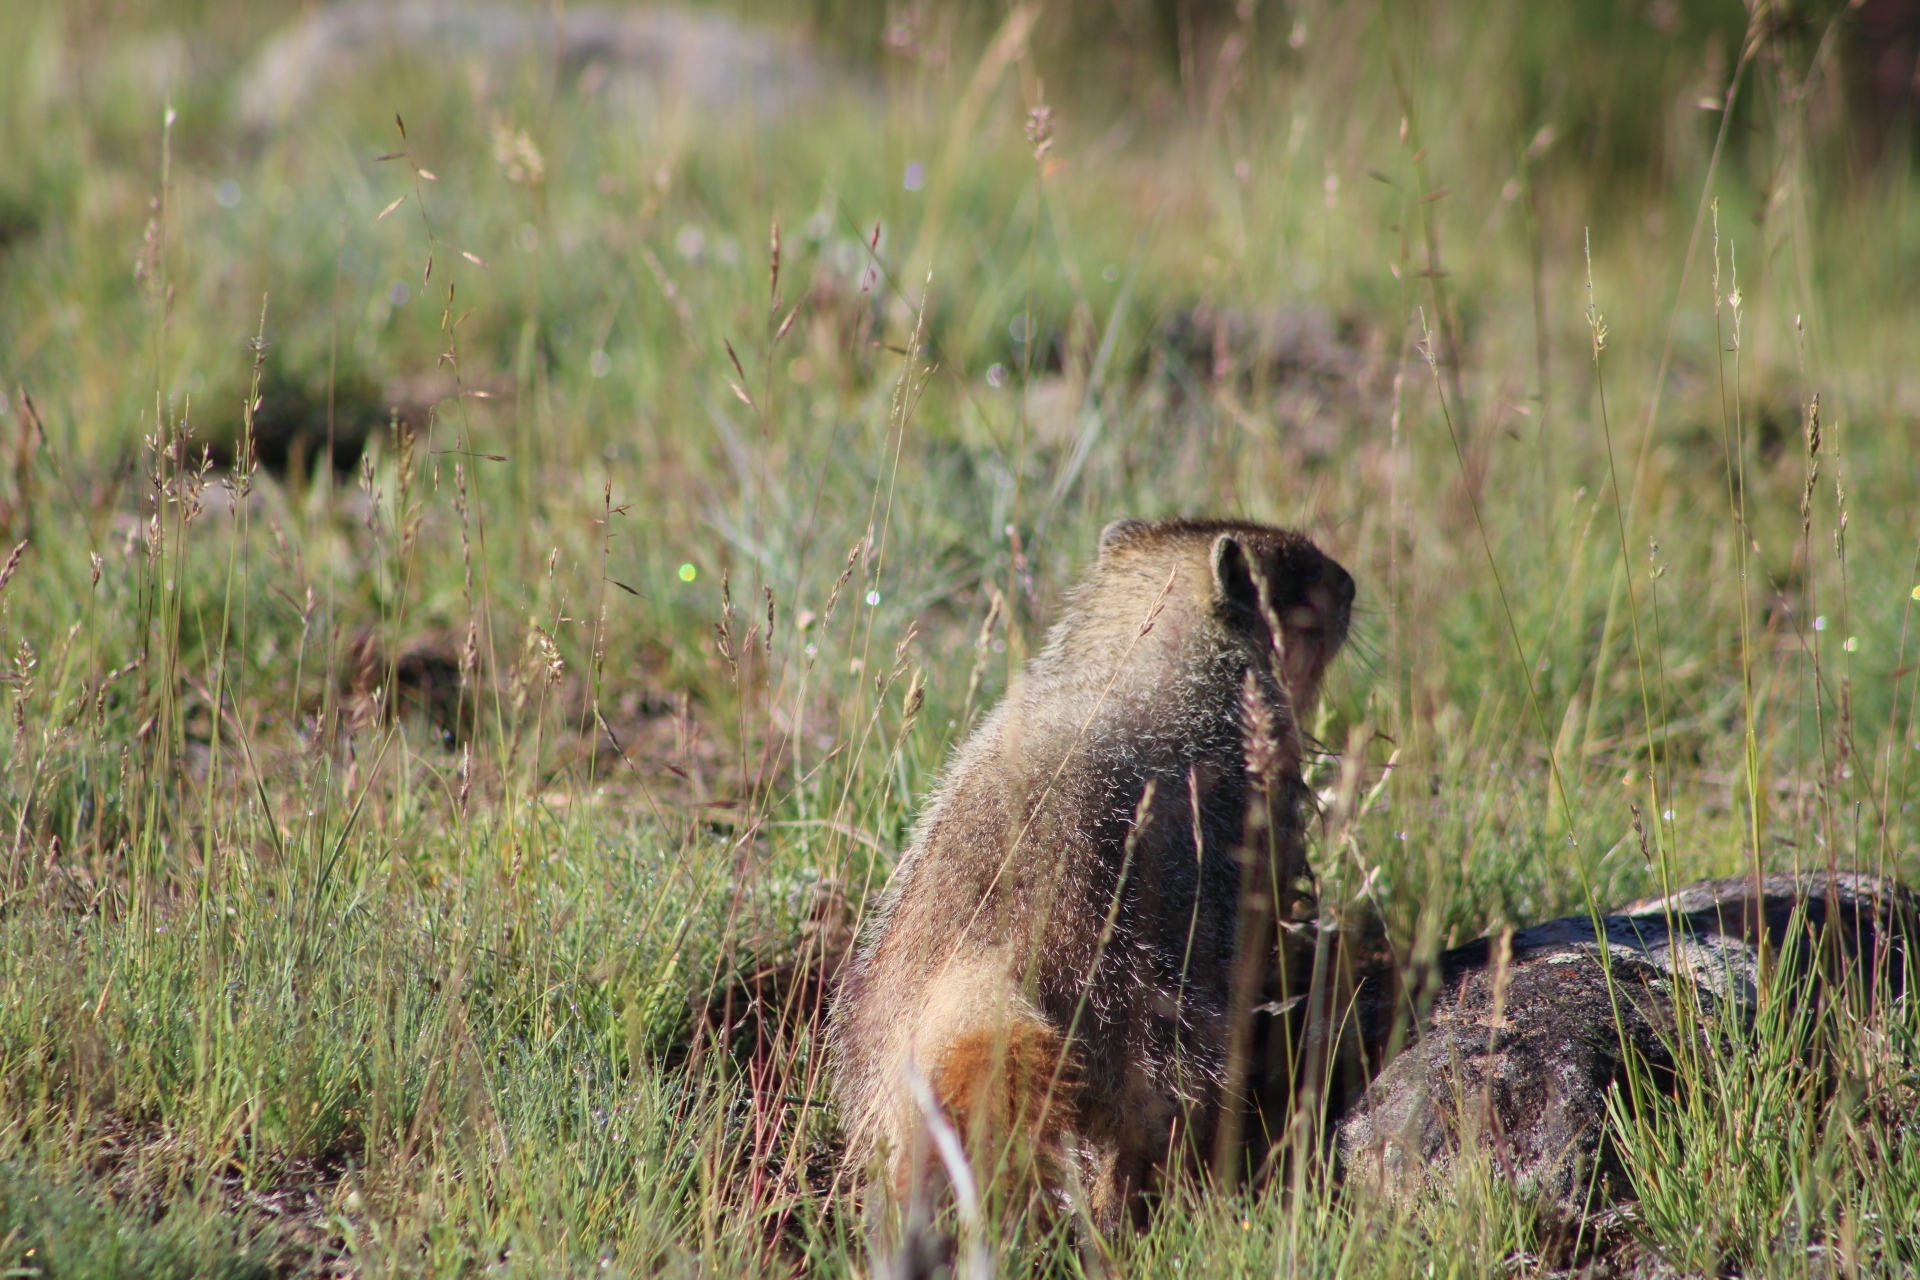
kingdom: Animalia
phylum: Chordata
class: Mammalia
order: Rodentia
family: Sciuridae
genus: Marmota
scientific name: Marmota flaviventris
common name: Yellow-bellied marmot
